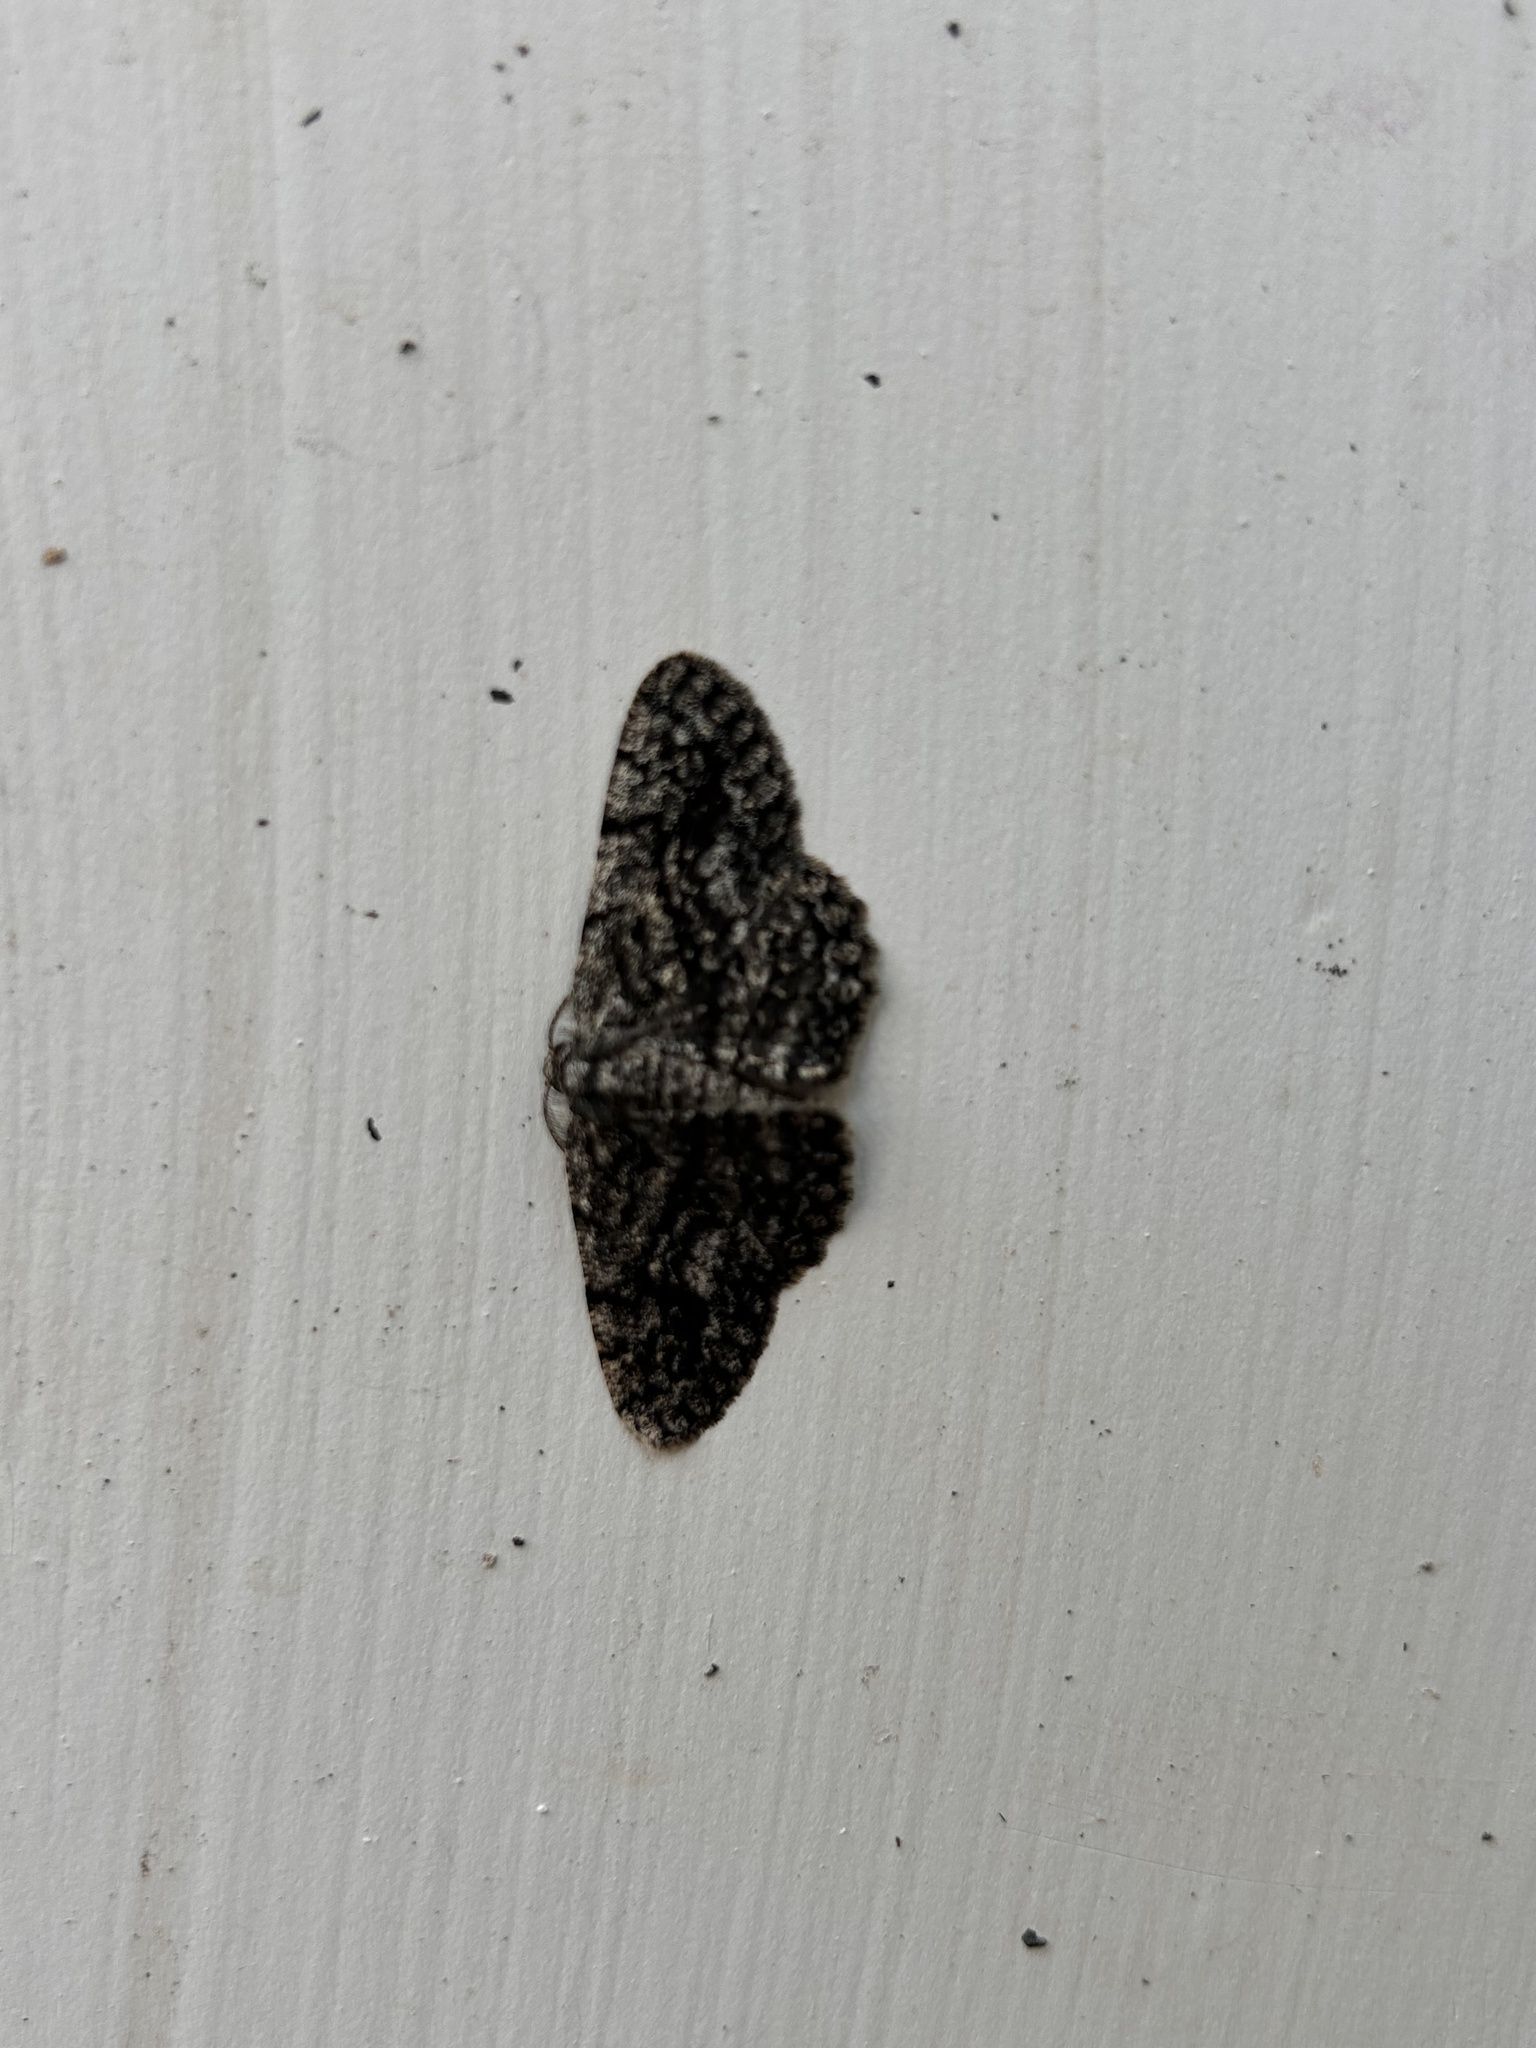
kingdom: Animalia
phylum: Arthropoda
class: Insecta
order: Lepidoptera
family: Geometridae
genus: Hypomecis
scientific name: Hypomecis umbrosaria
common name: Umber moth
